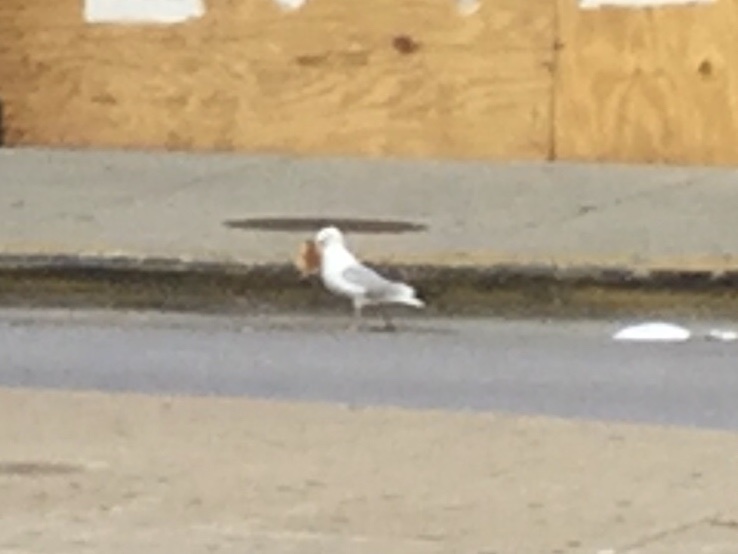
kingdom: Animalia
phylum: Chordata
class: Aves
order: Charadriiformes
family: Laridae
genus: Larus
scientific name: Larus
